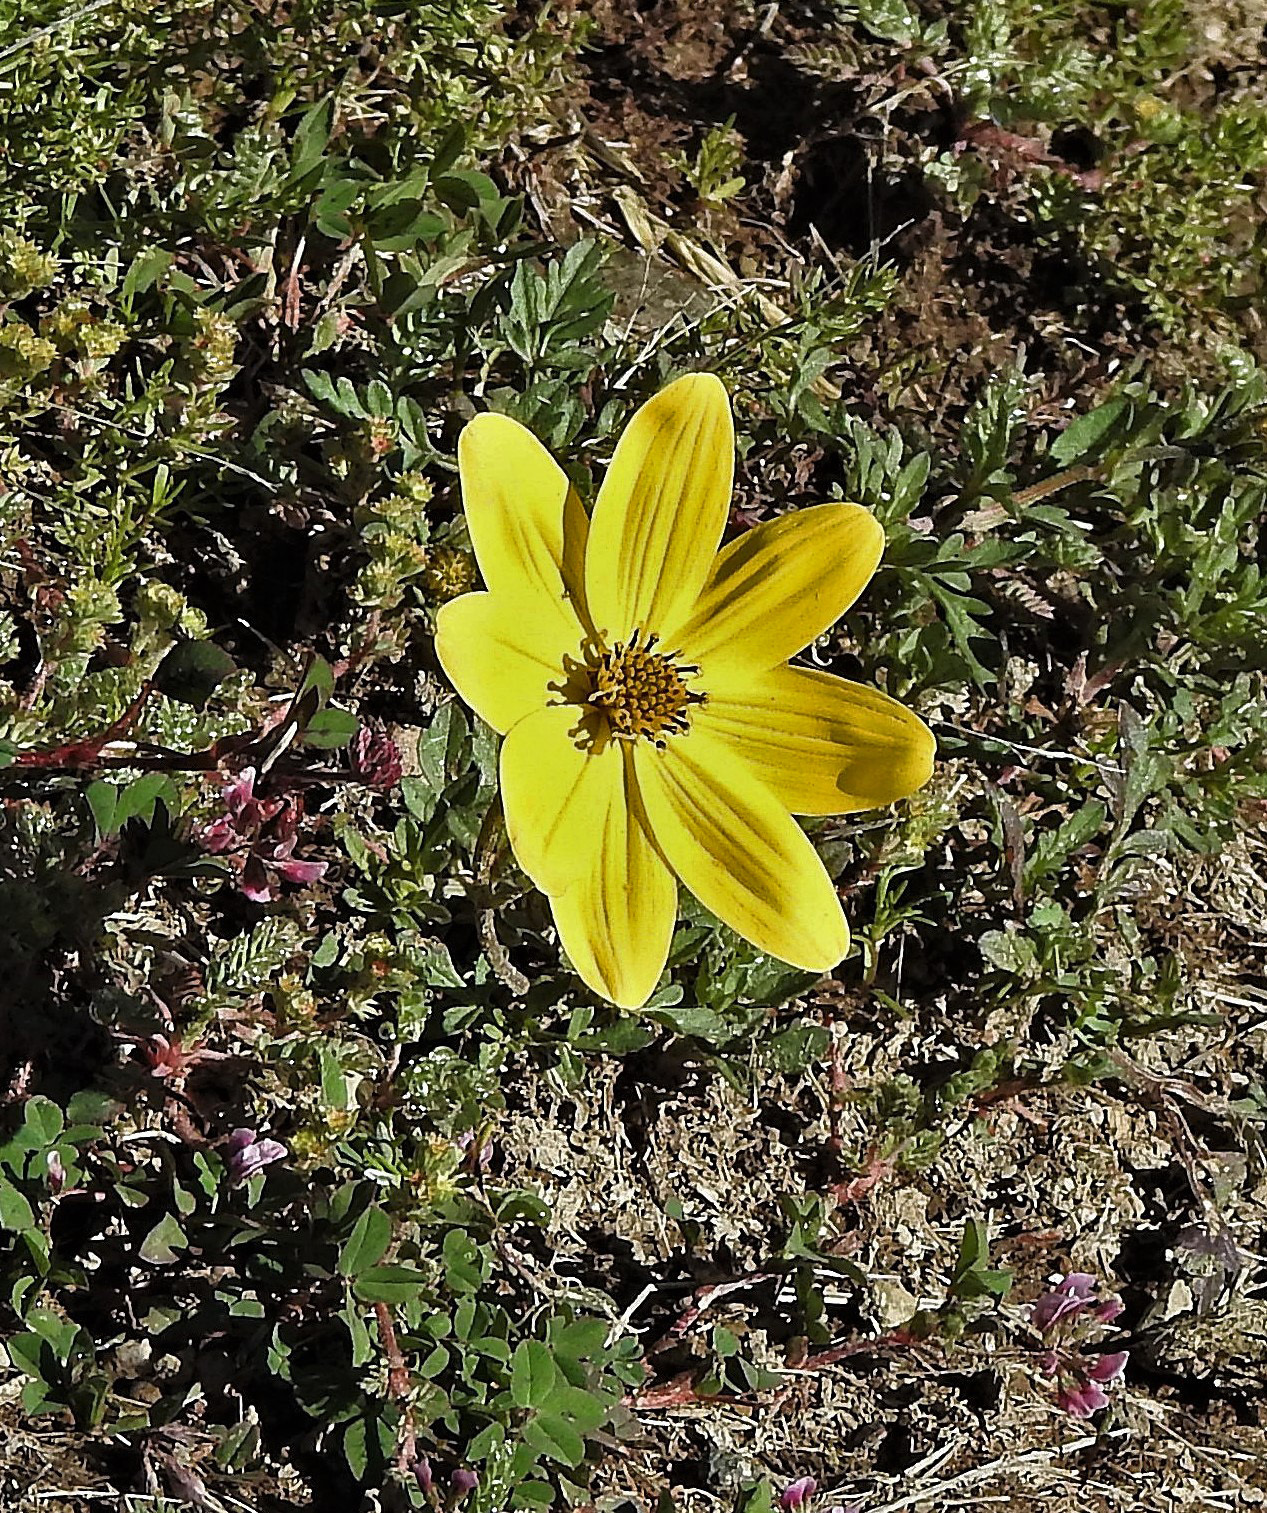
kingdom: Plantae
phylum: Tracheophyta
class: Magnoliopsida
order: Asterales
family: Asteraceae
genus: Bidens
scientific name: Bidens andicola
